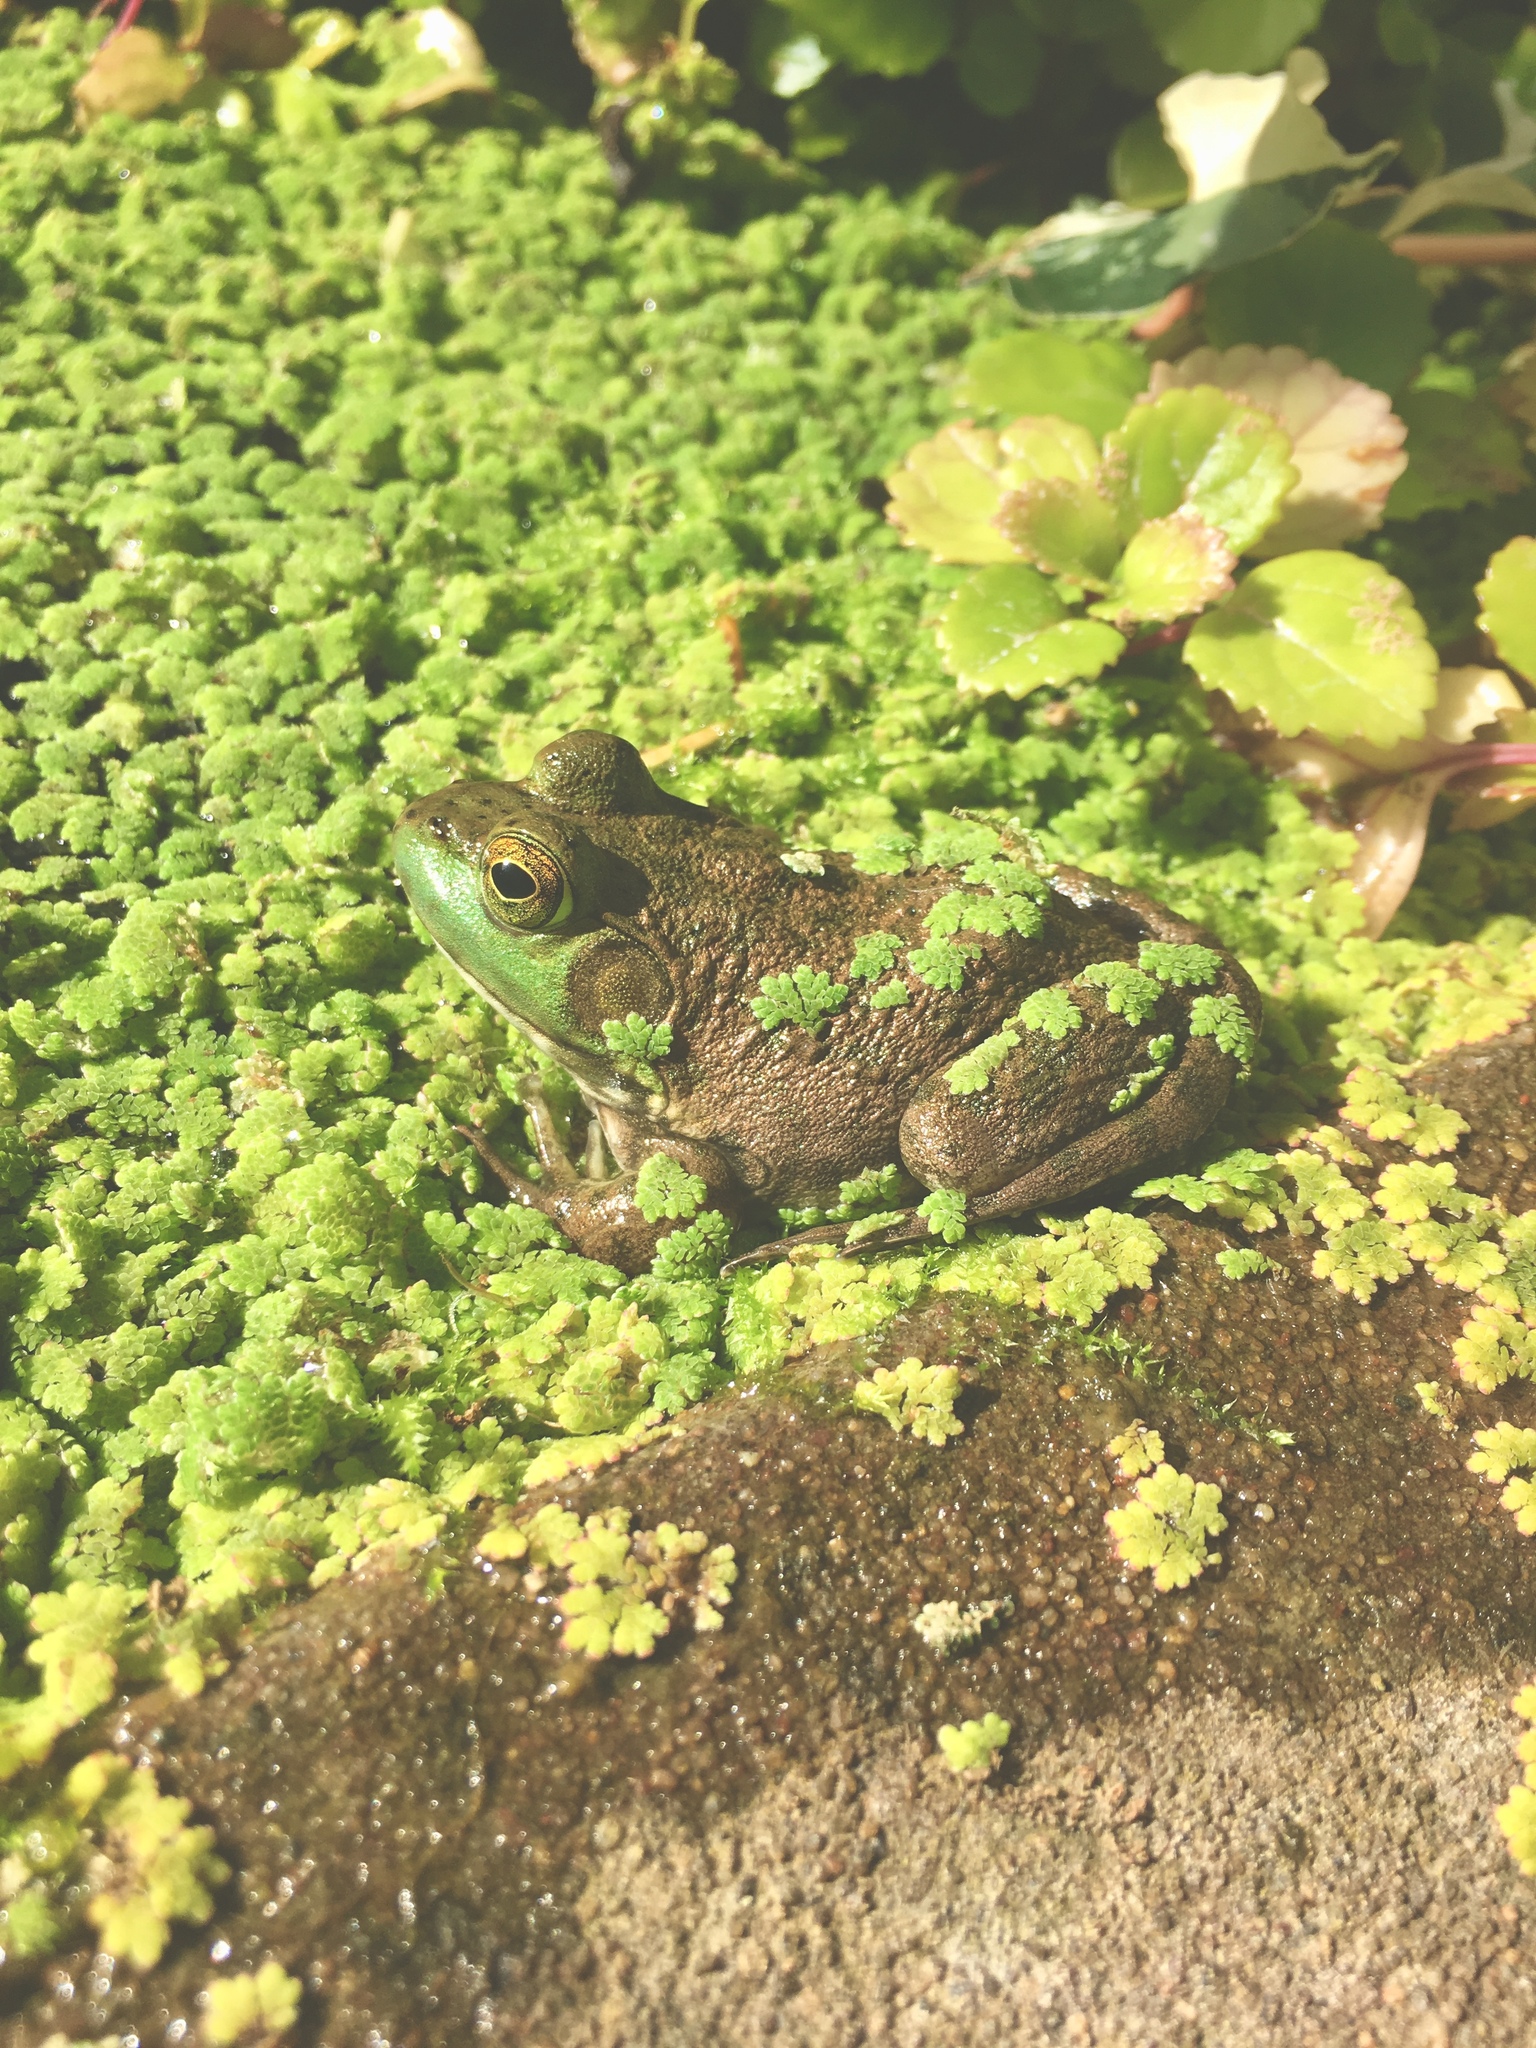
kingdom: Animalia
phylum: Chordata
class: Amphibia
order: Anura
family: Ranidae
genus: Lithobates
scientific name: Lithobates catesbeianus
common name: American bullfrog
